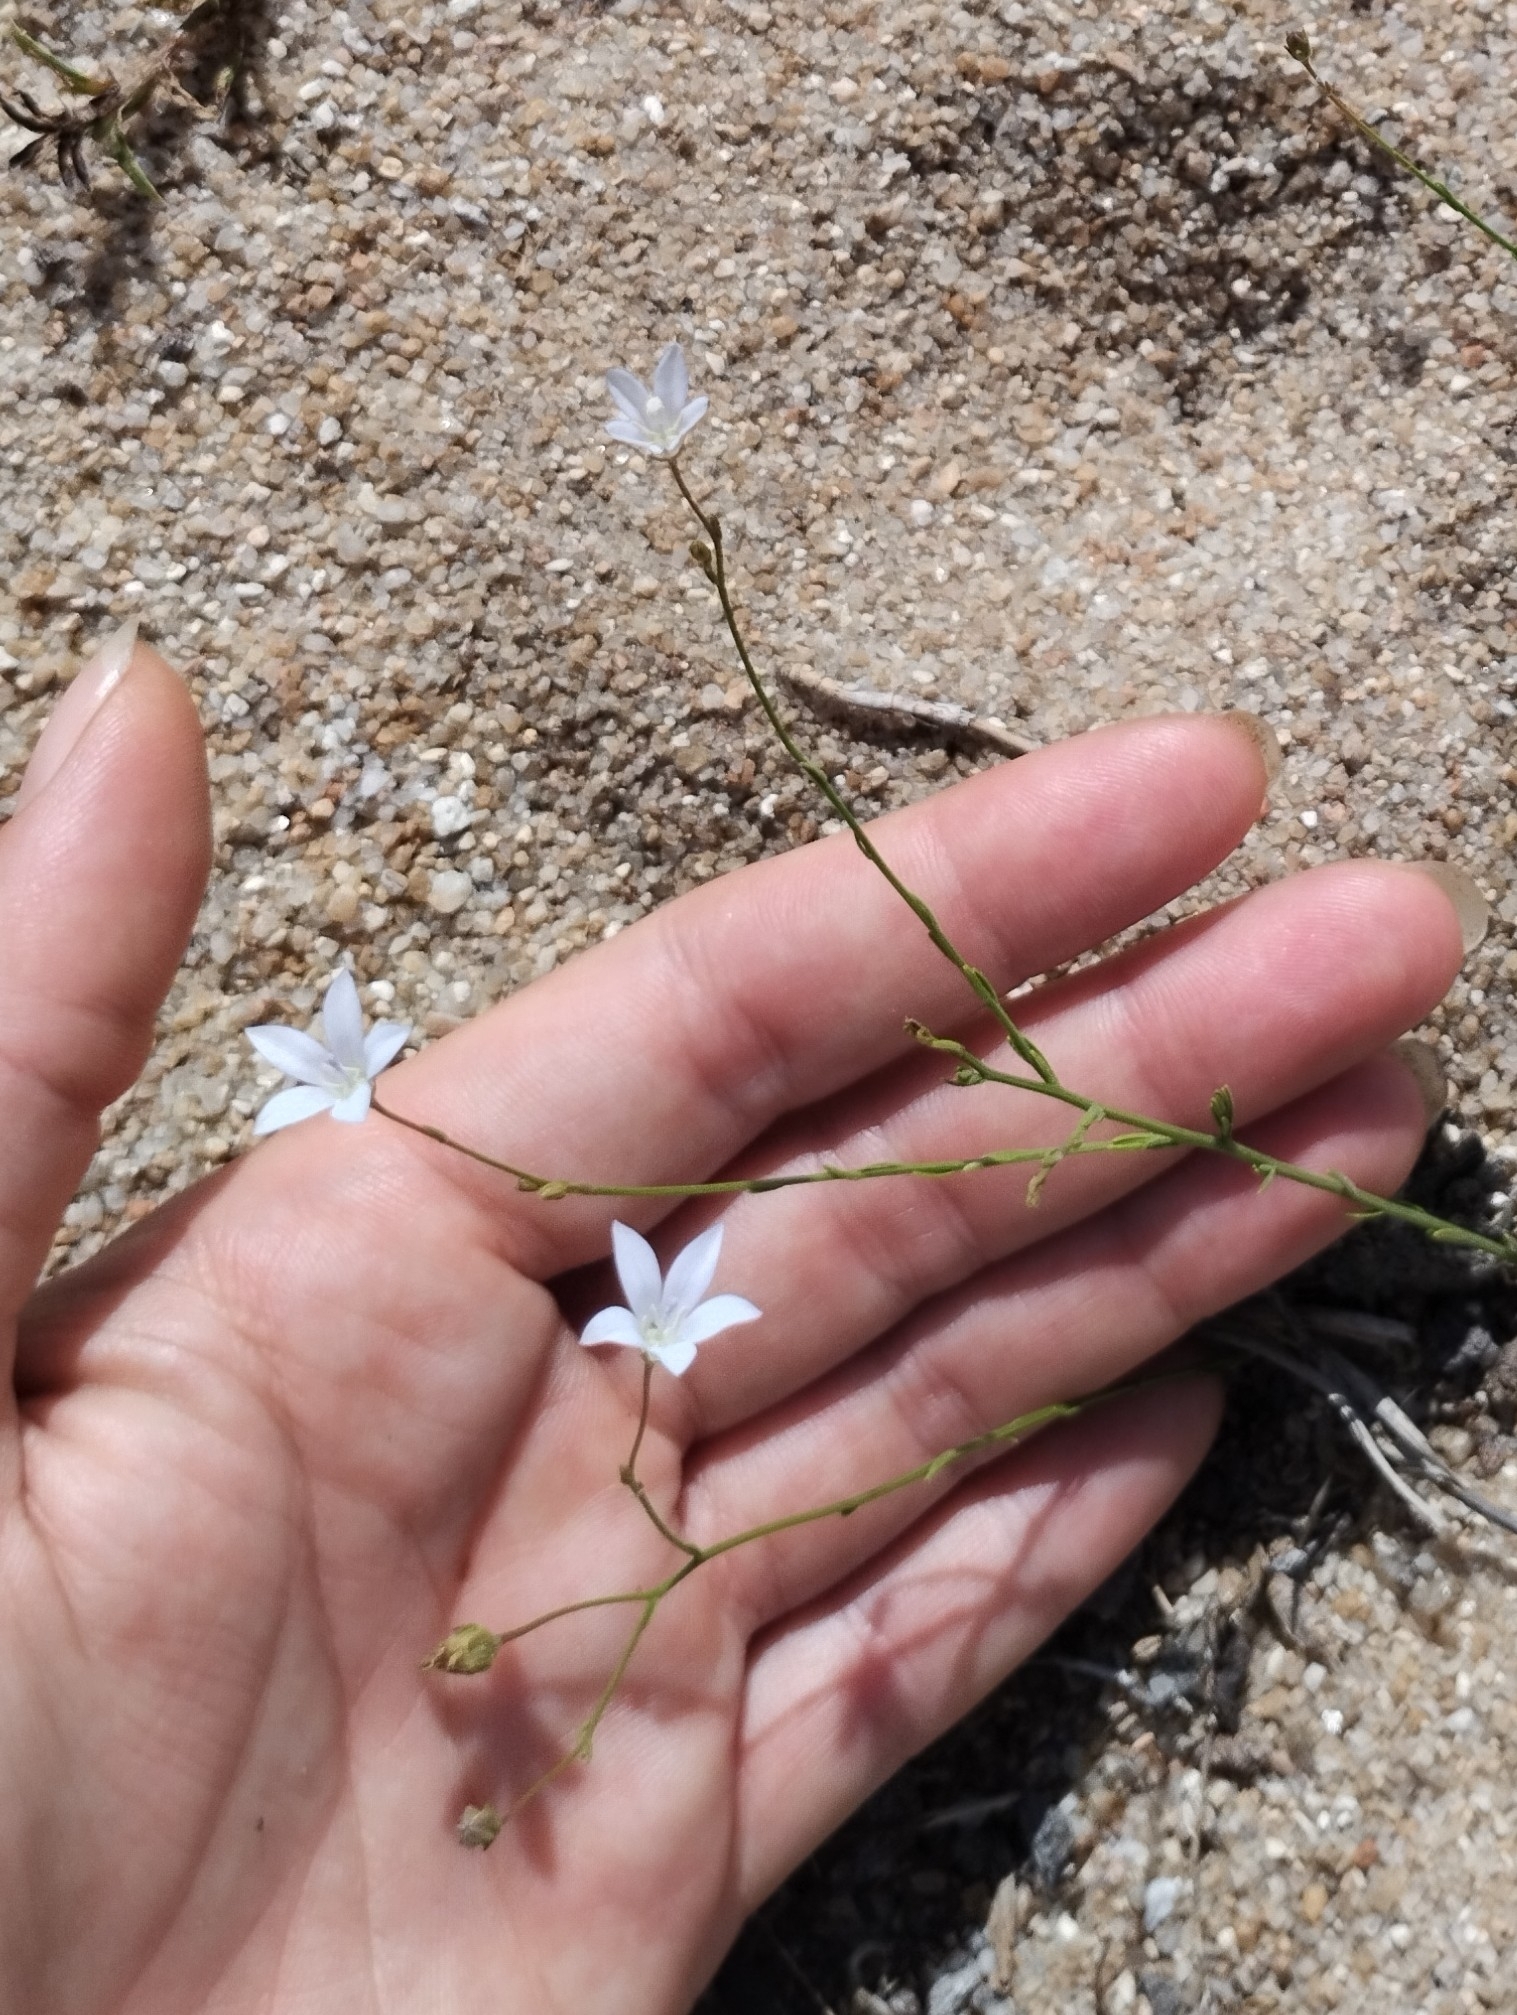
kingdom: Plantae
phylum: Tracheophyta
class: Magnoliopsida
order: Asterales
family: Campanulaceae
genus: Wahlenbergia
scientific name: Wahlenbergia linarioides
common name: Tuffybells
